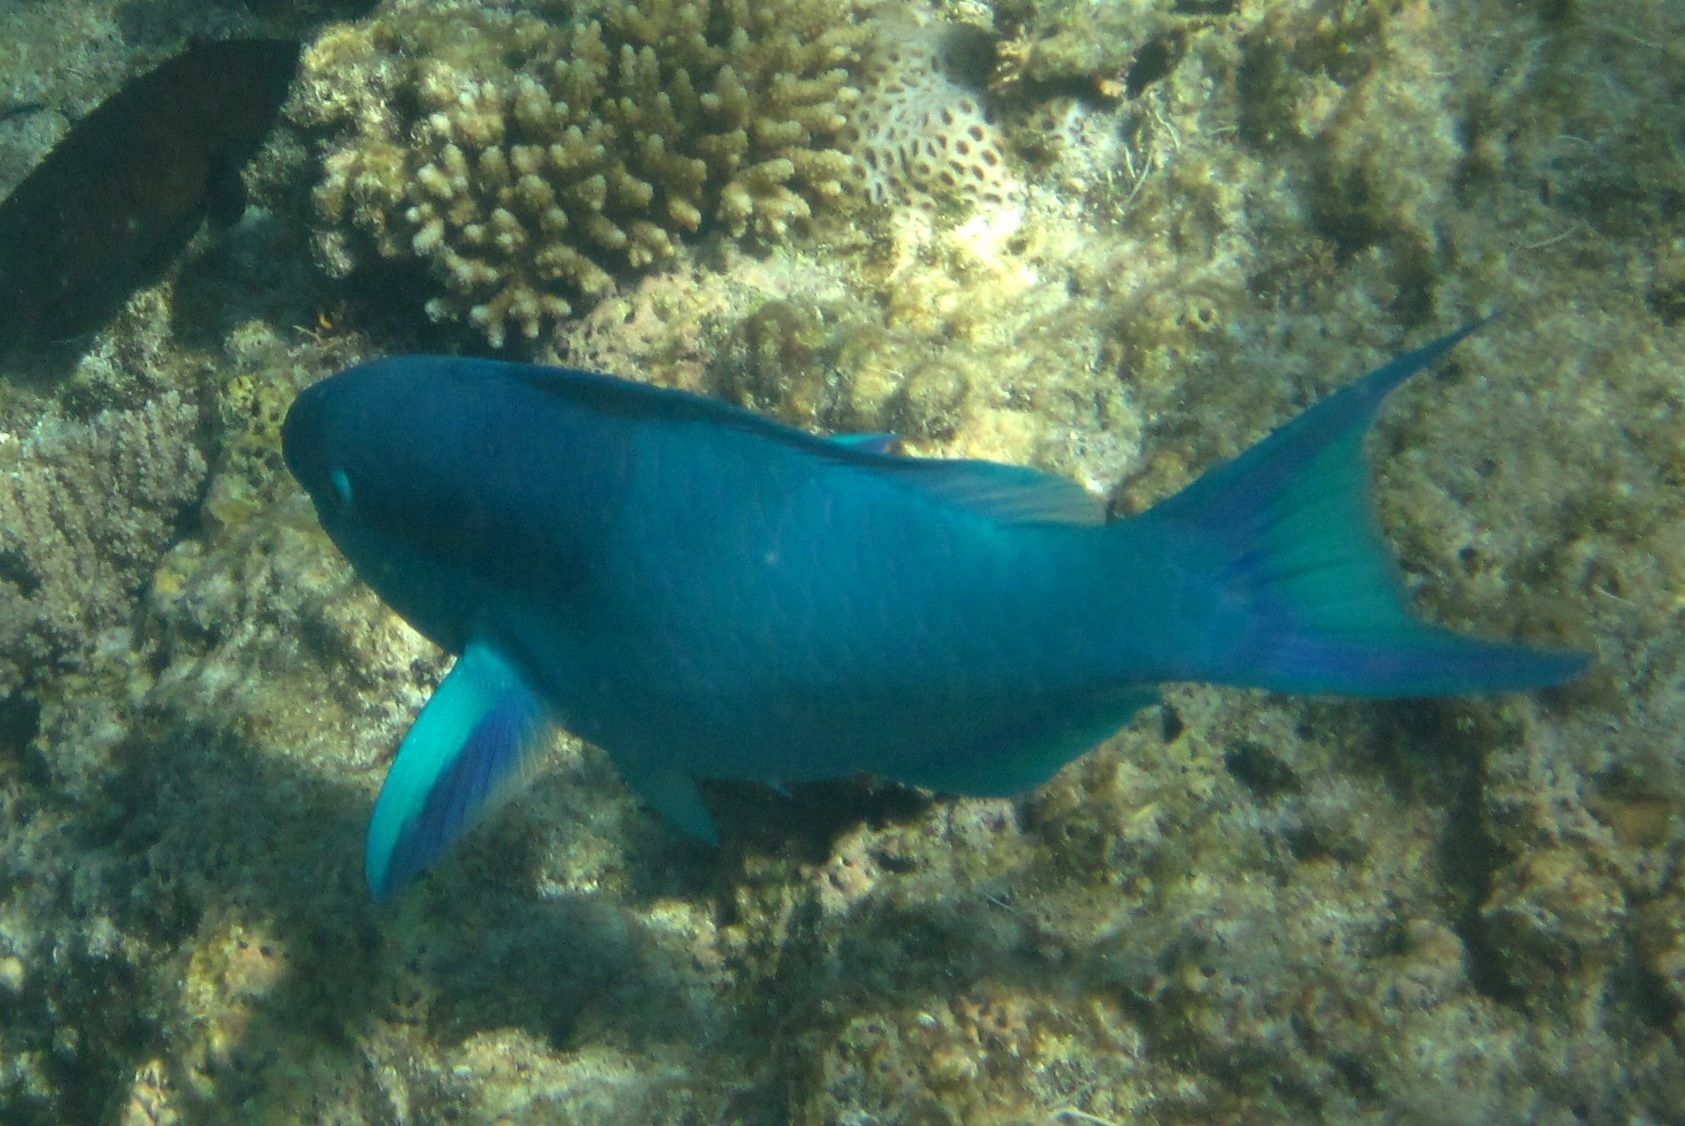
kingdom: Animalia
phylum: Chordata
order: Perciformes
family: Scaridae
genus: Scarus
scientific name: Scarus oviceps
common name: Blue parrotfish
